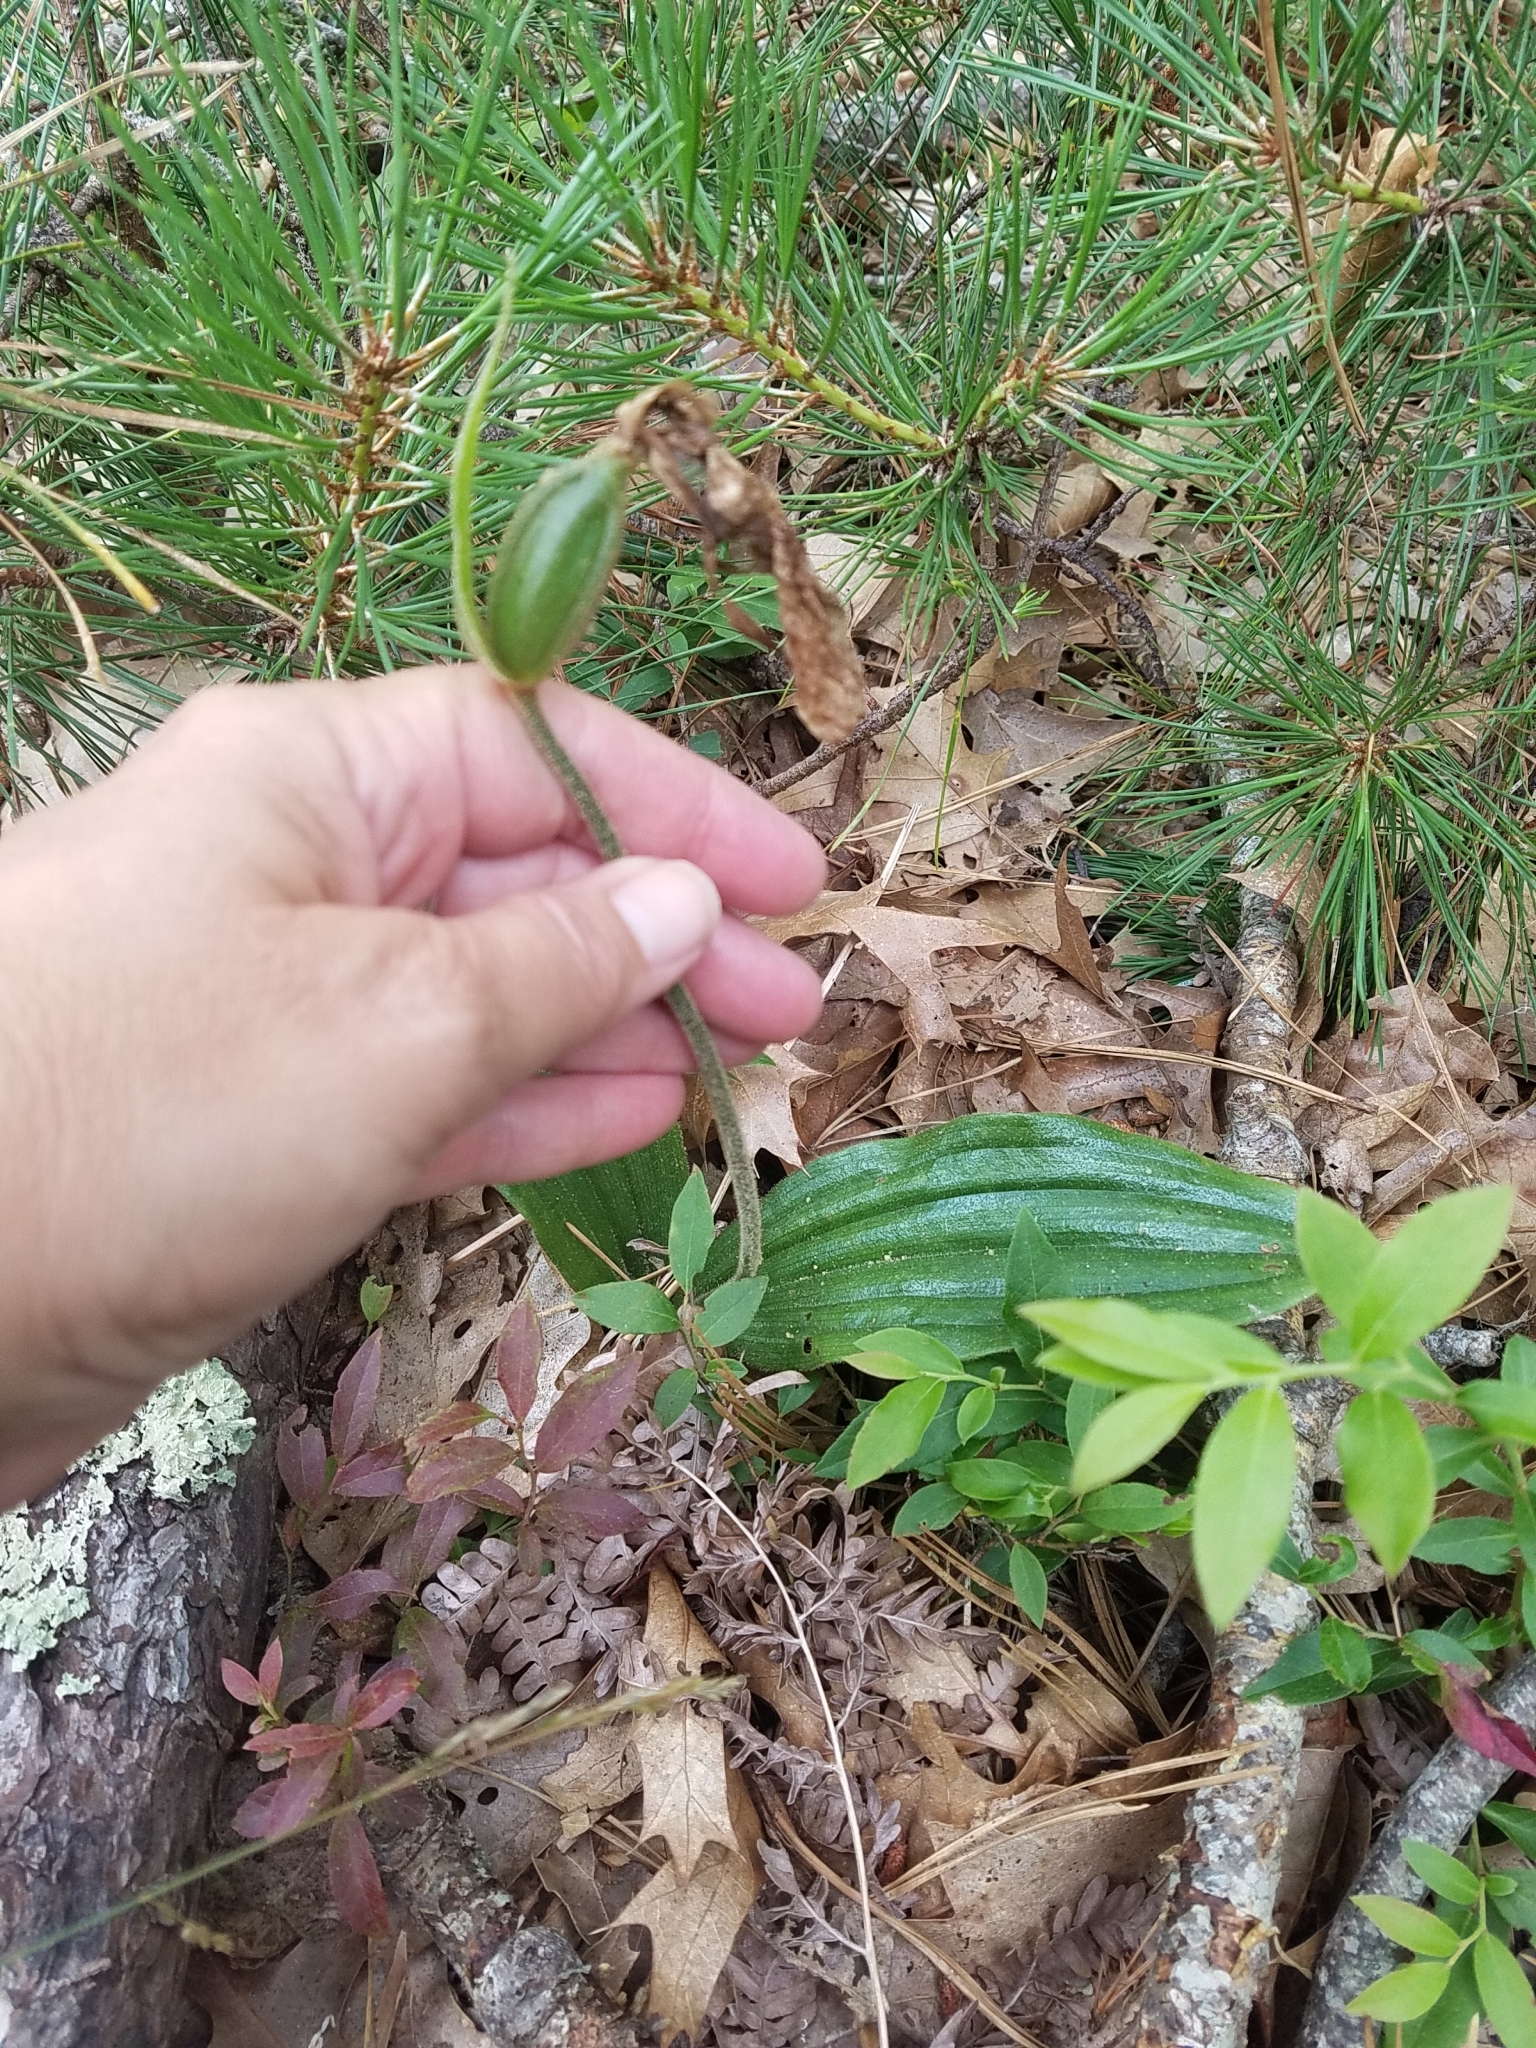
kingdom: Plantae
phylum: Tracheophyta
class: Liliopsida
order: Asparagales
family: Orchidaceae
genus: Cypripedium
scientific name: Cypripedium acaule
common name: Pink lady's-slipper
